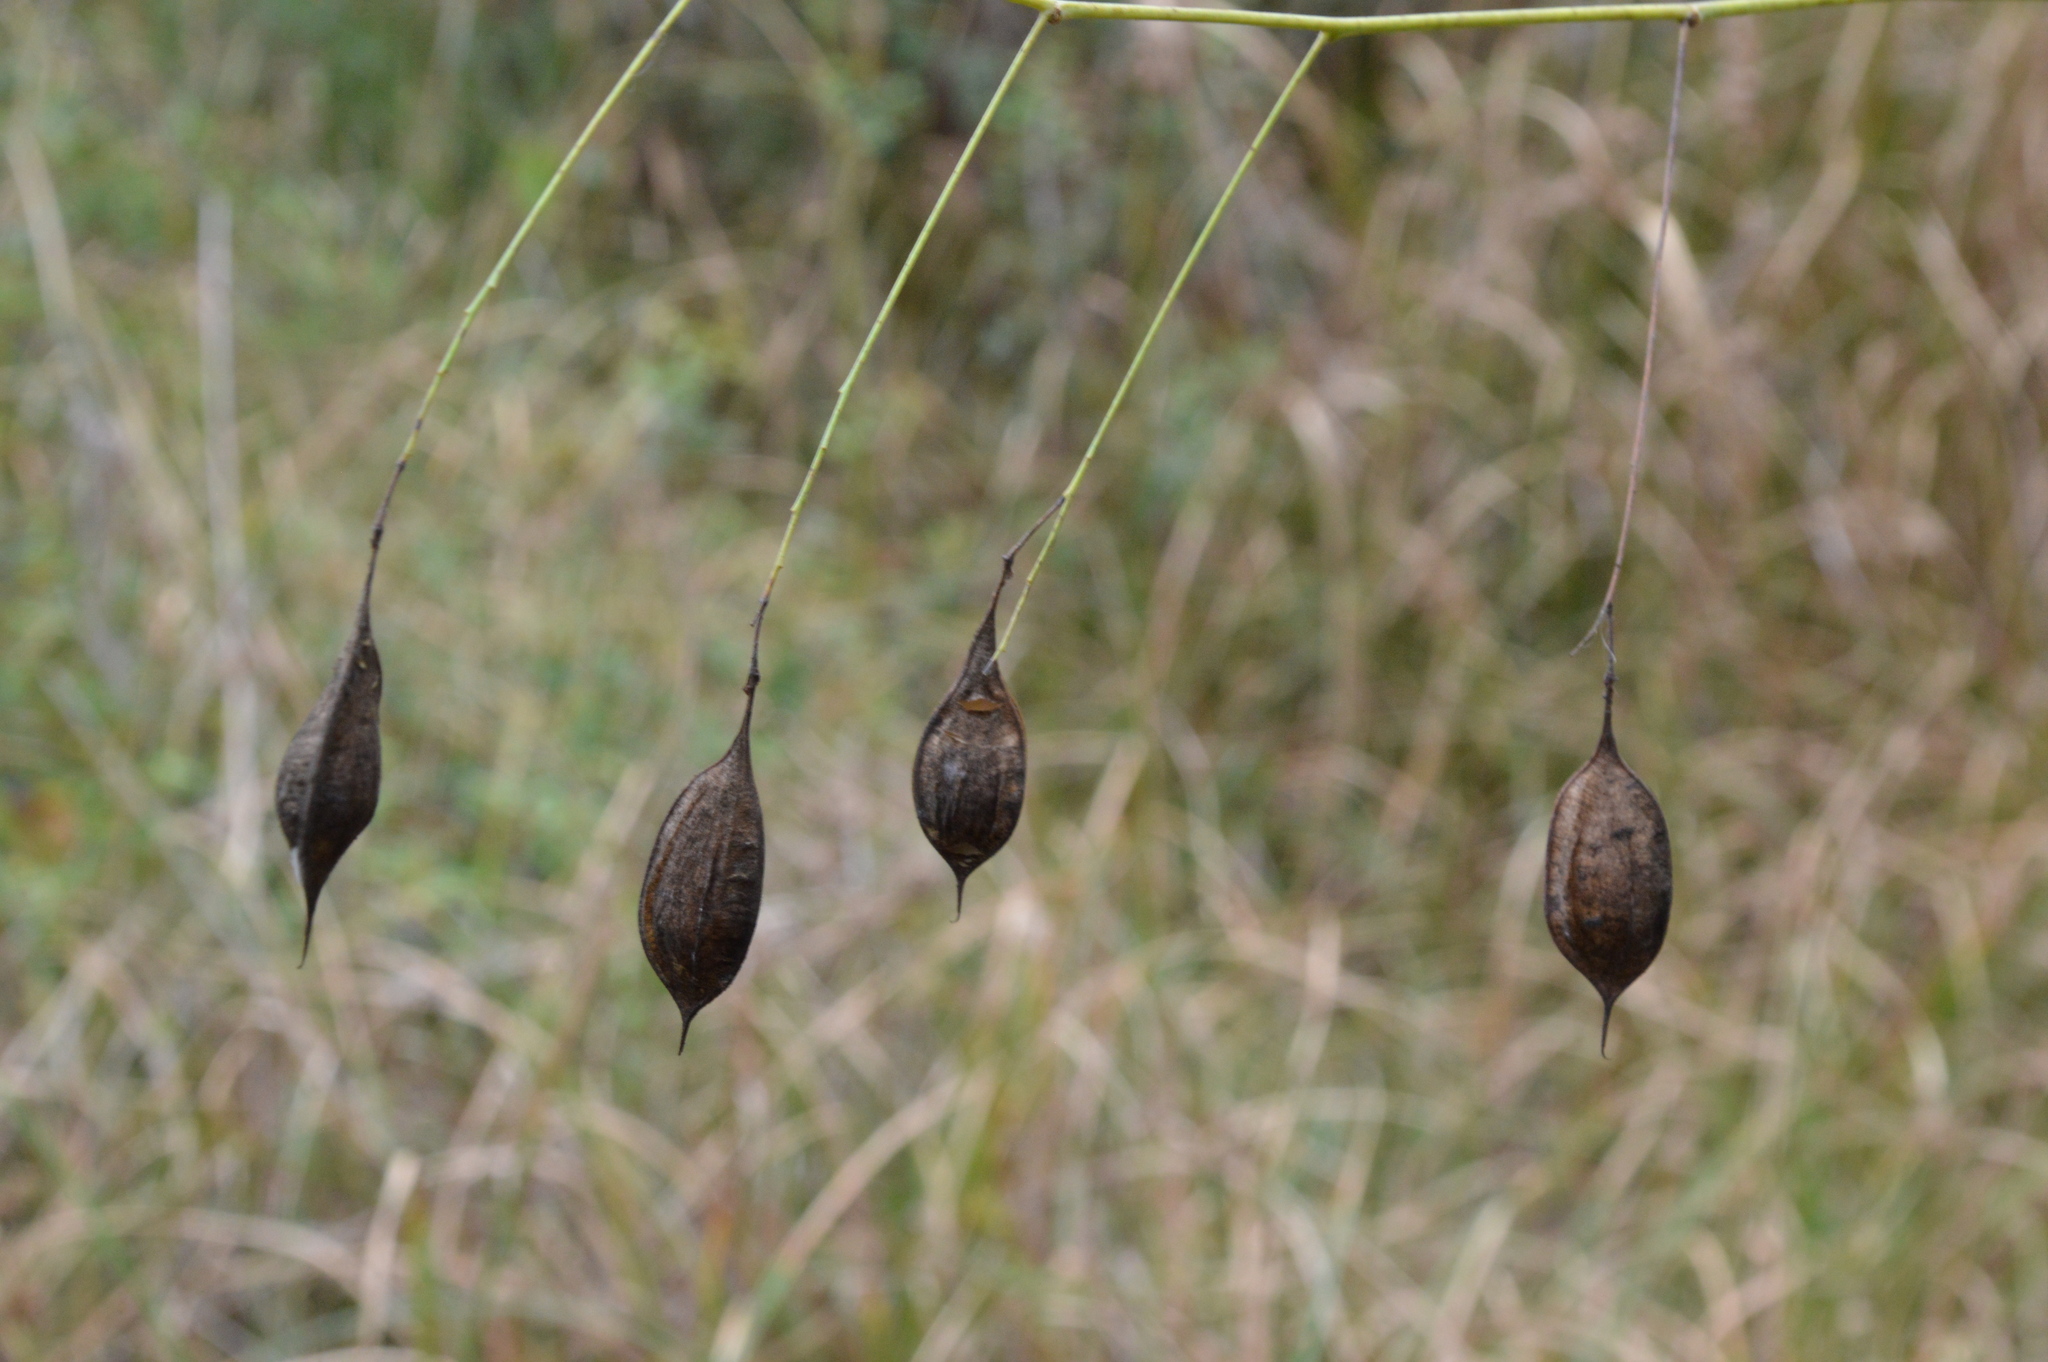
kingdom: Plantae
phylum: Tracheophyta
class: Magnoliopsida
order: Fabales
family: Fabaceae
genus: Sesbania
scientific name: Sesbania vesicaria
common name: Bagpod
